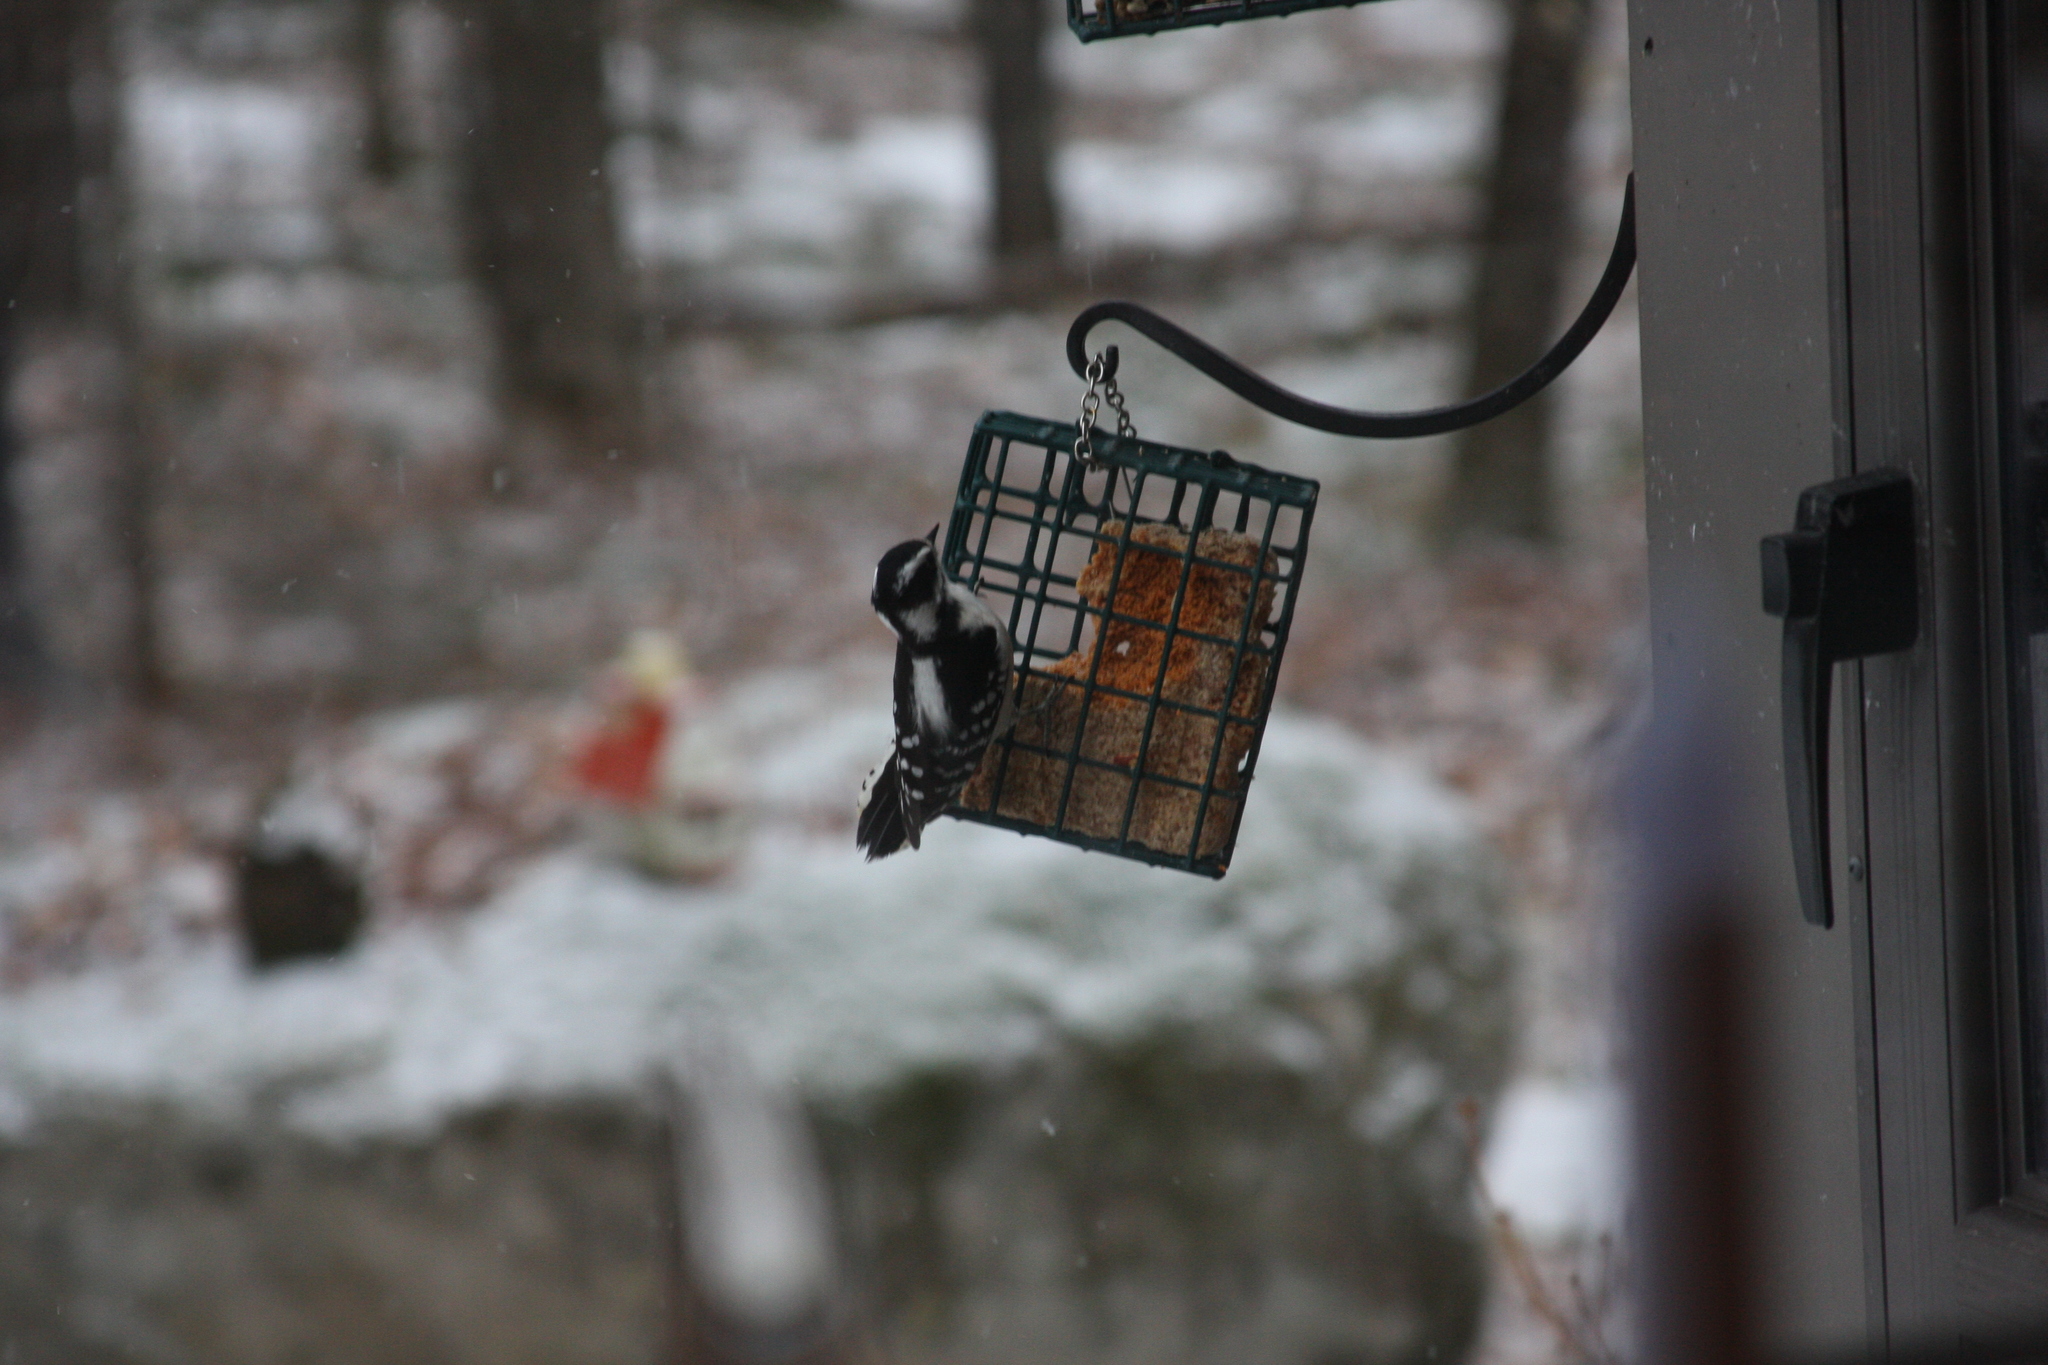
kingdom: Animalia
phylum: Chordata
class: Aves
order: Piciformes
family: Picidae
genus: Dryobates
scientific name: Dryobates pubescens
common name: Downy woodpecker
